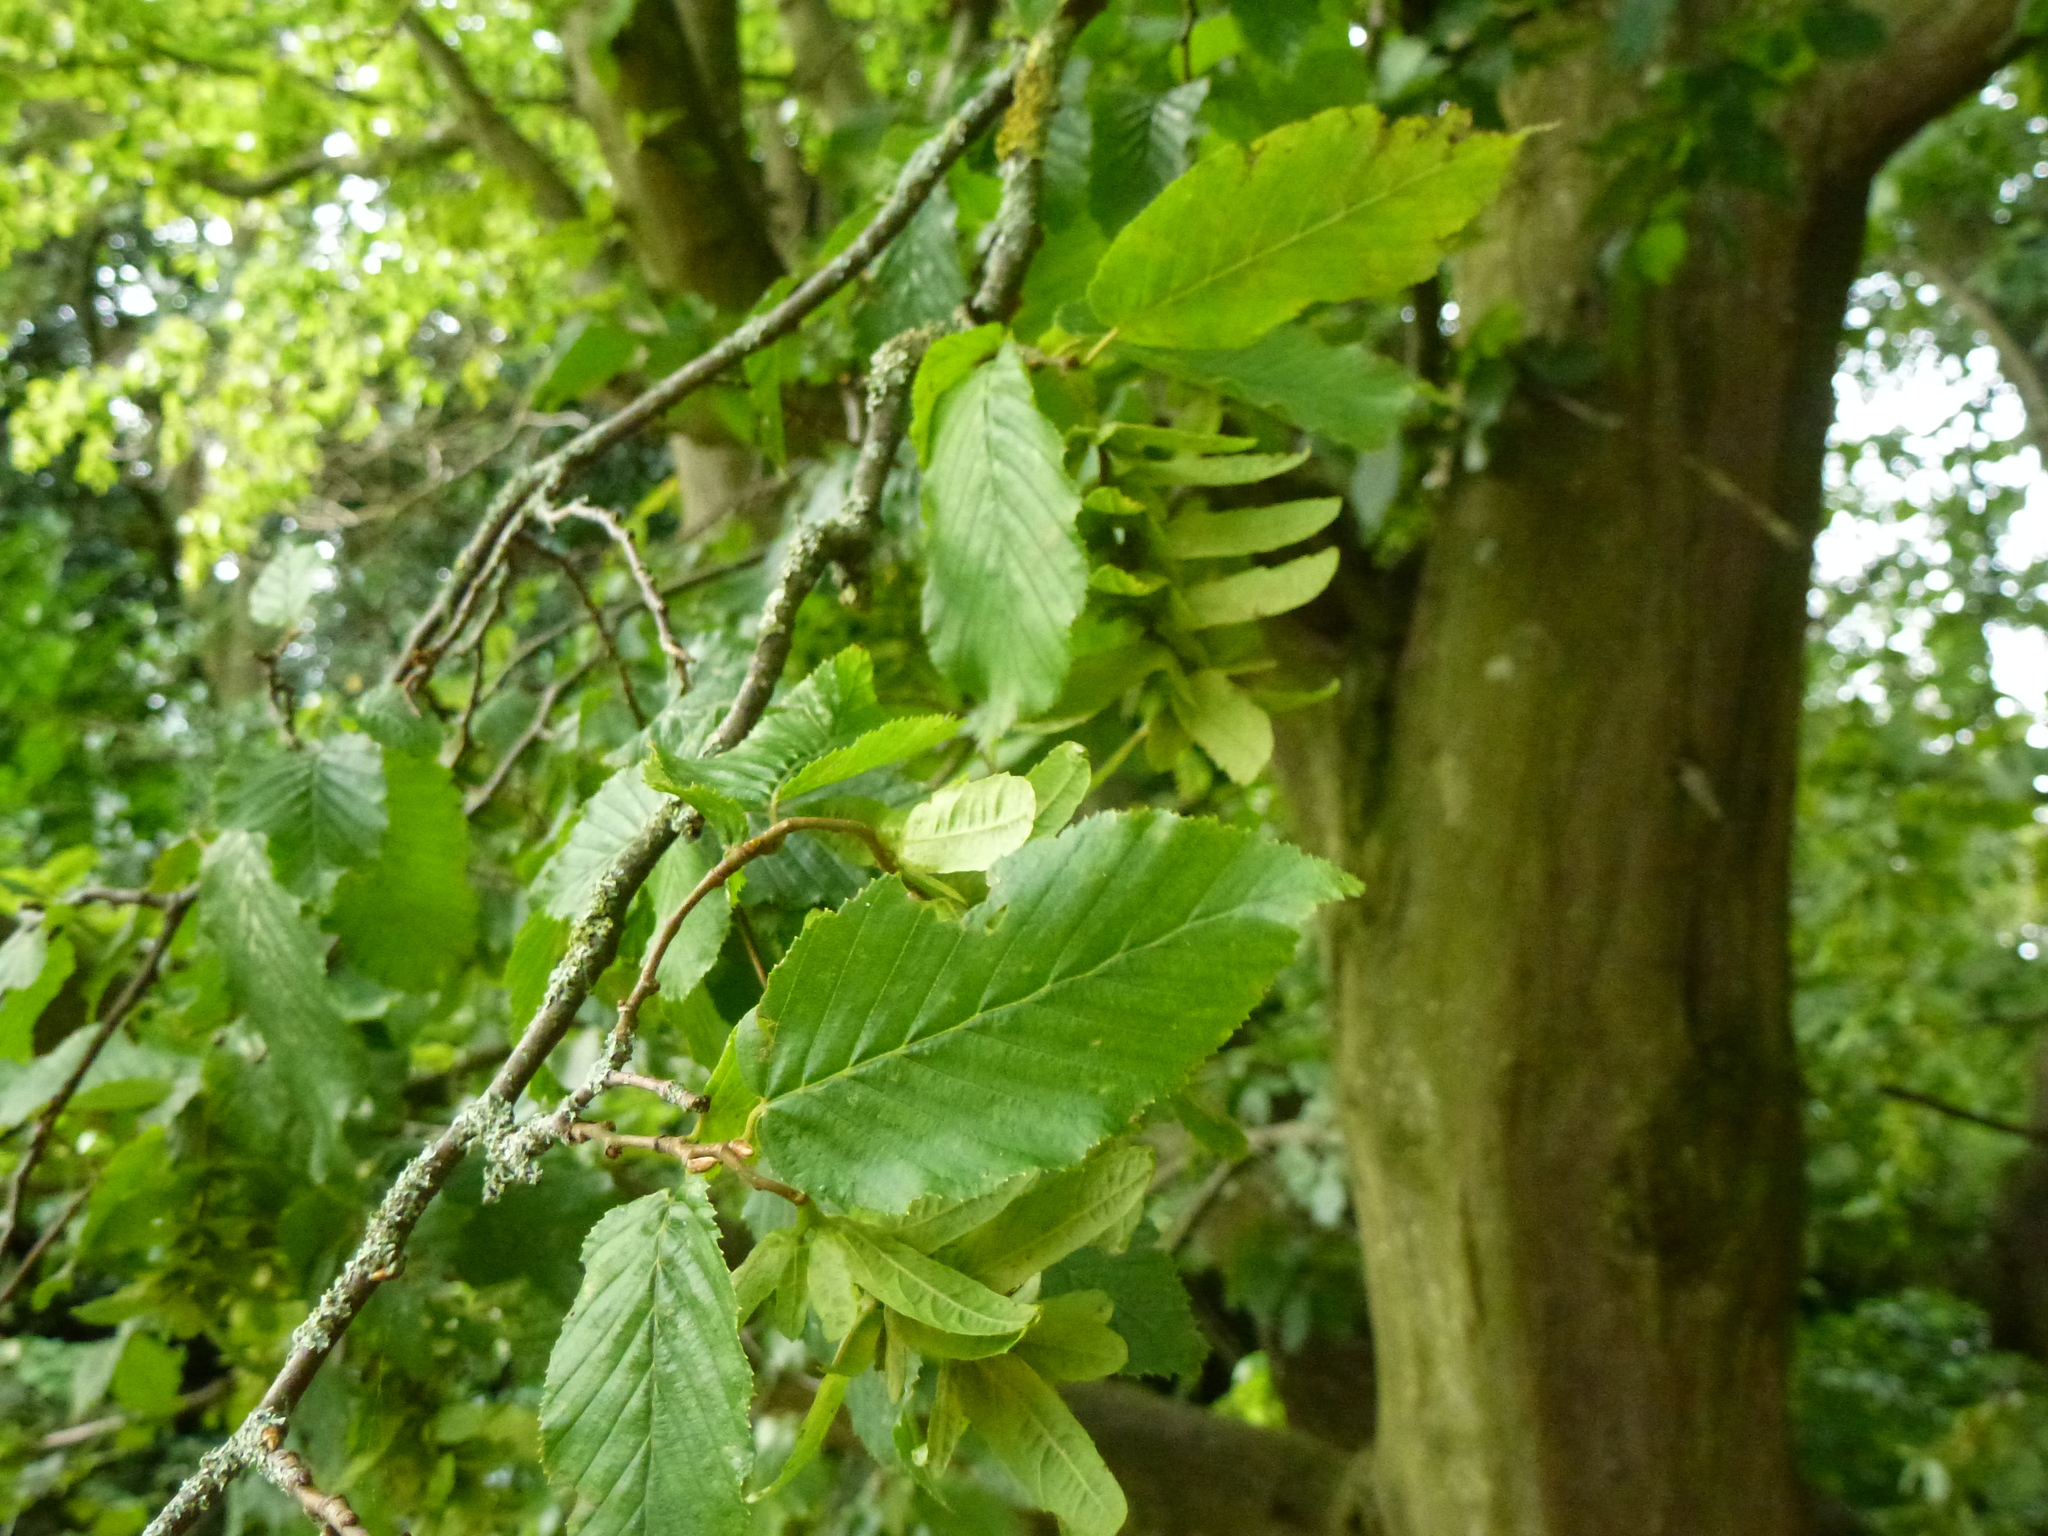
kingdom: Plantae
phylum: Tracheophyta
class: Magnoliopsida
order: Fagales
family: Betulaceae
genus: Carpinus
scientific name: Carpinus betulus
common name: Hornbeam
